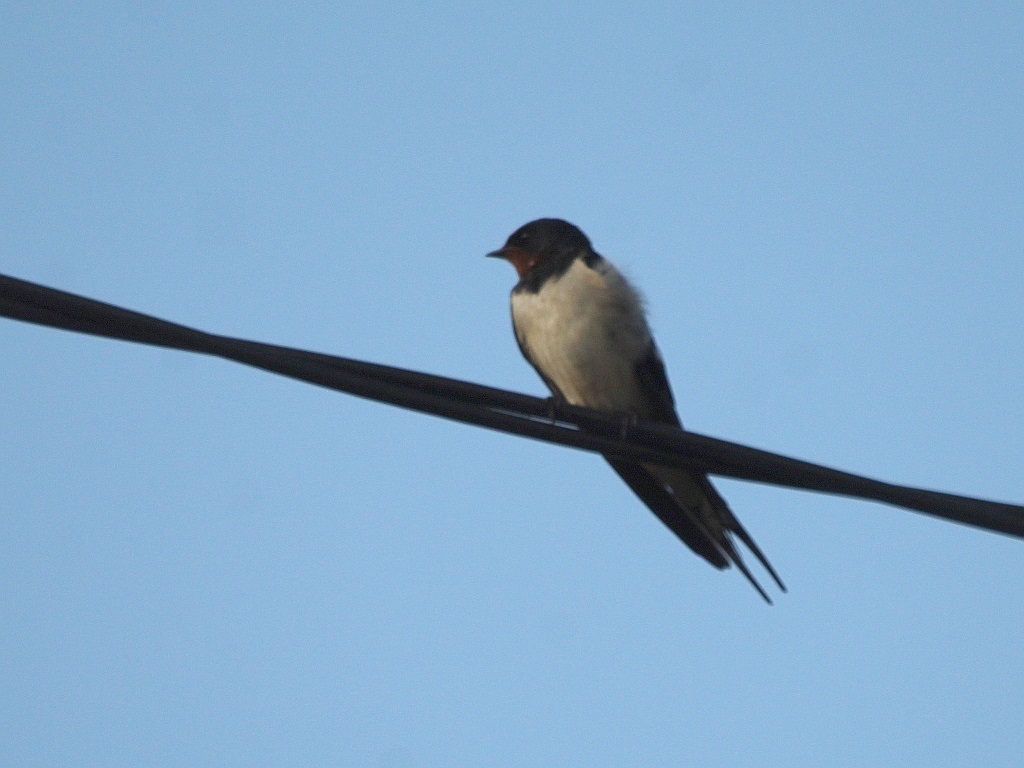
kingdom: Animalia
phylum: Chordata
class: Aves
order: Passeriformes
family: Hirundinidae
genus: Hirundo
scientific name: Hirundo rustica
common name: Barn swallow
